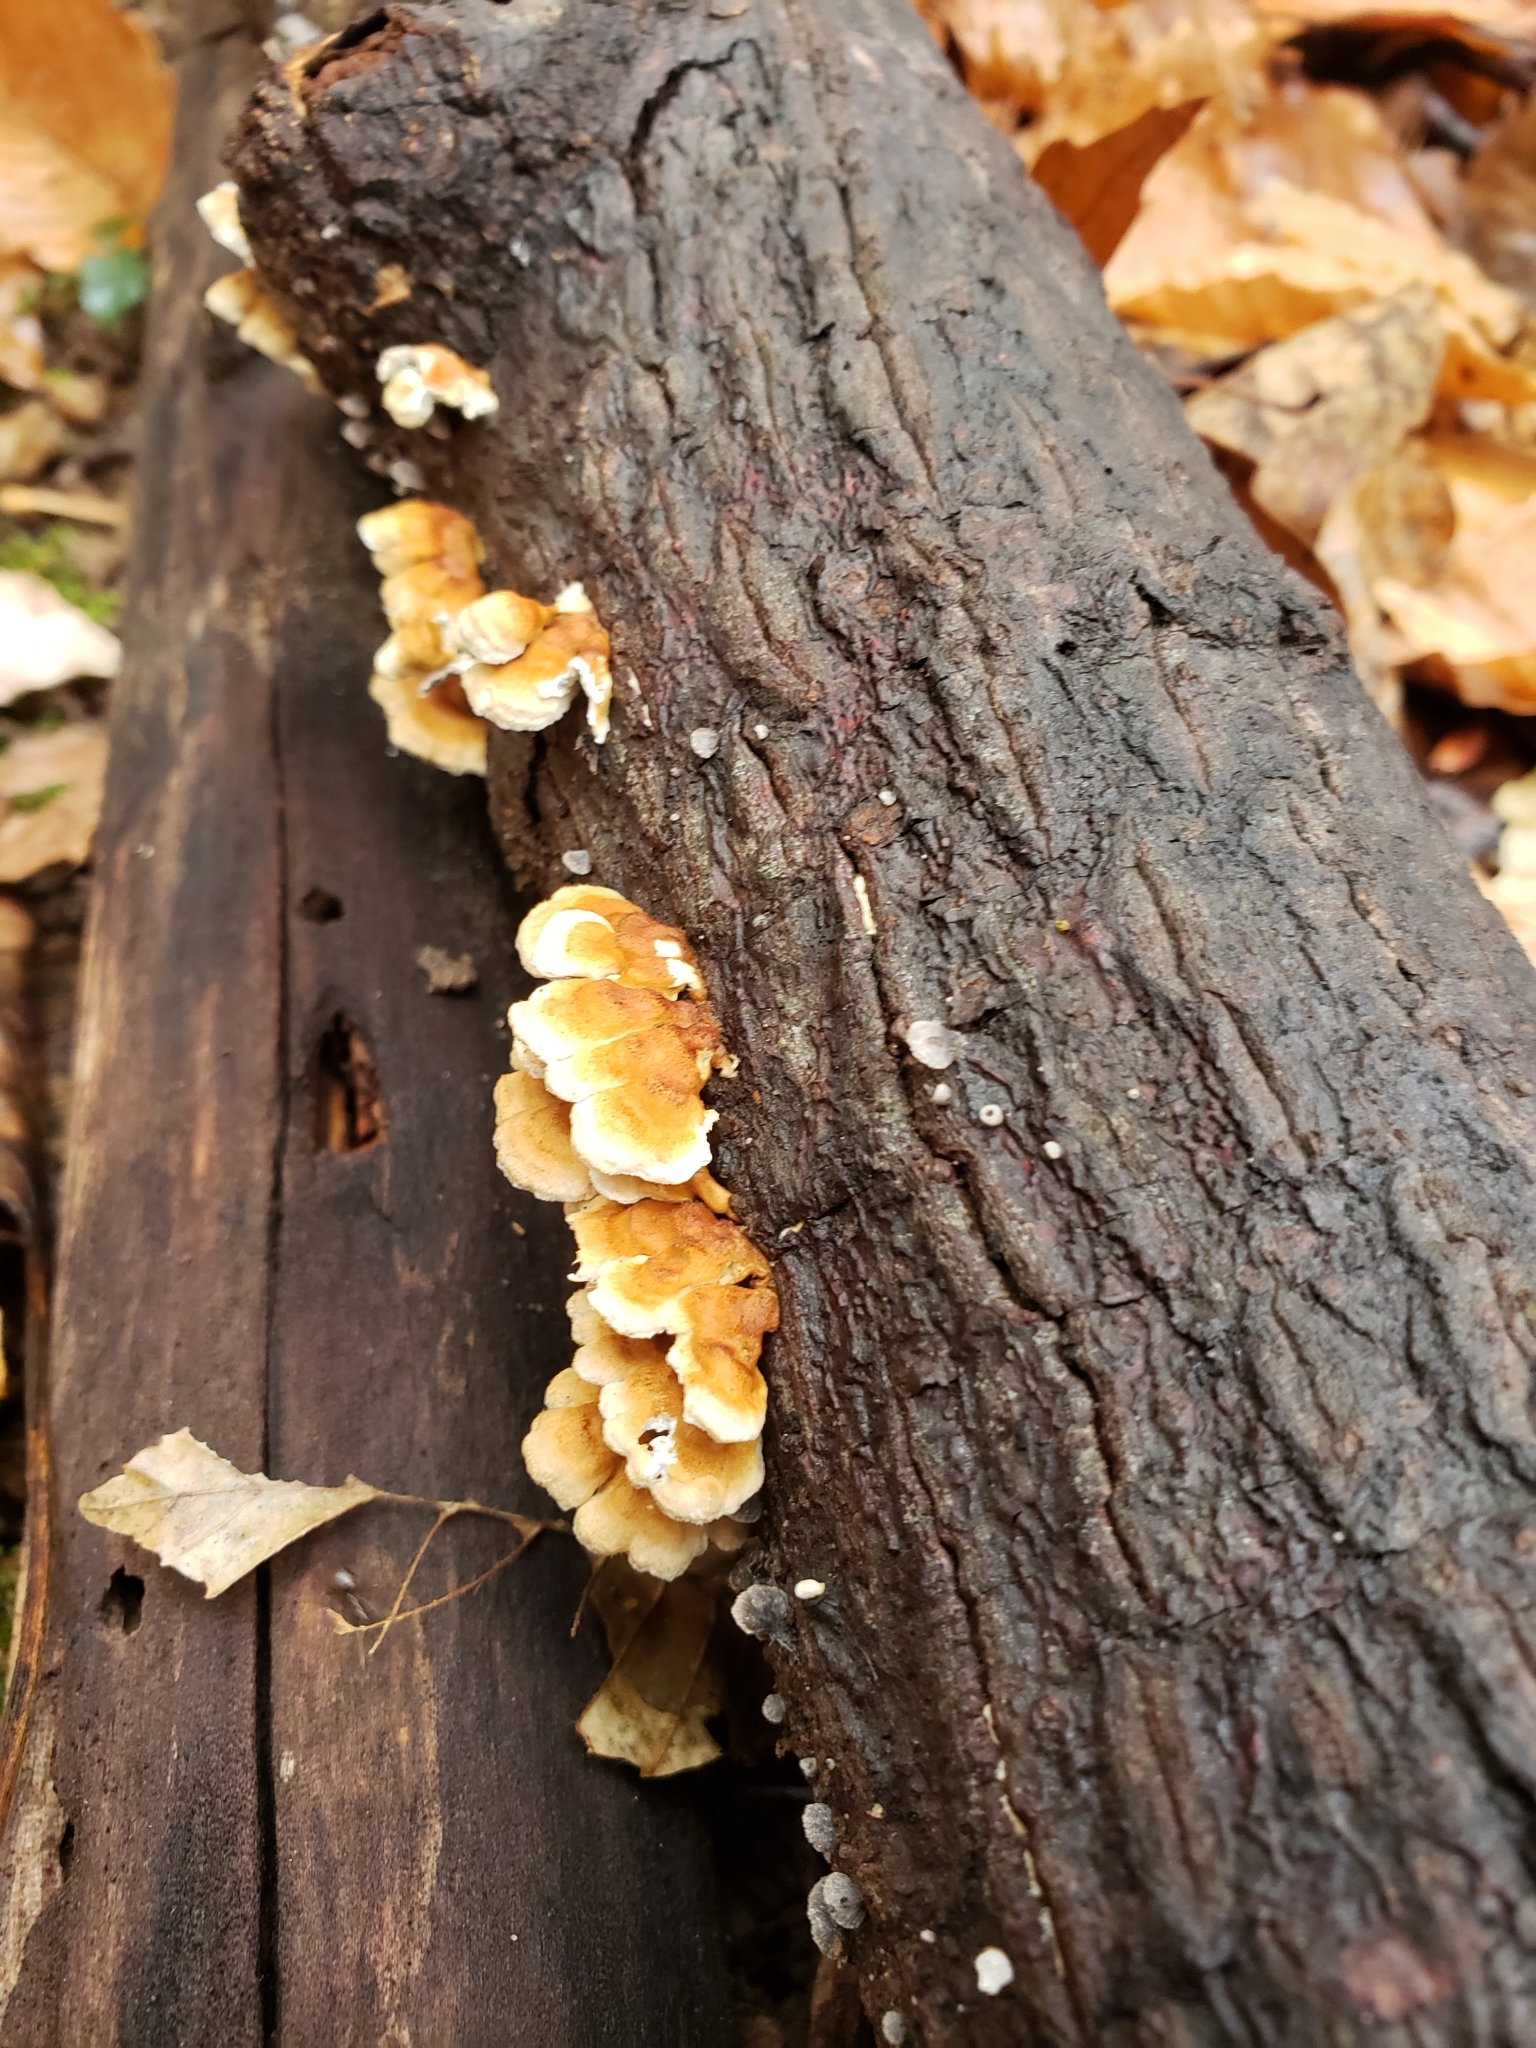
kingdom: Fungi
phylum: Basidiomycota
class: Agaricomycetes
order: Amylocorticiales
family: Amylocorticiaceae
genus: Plicaturopsis
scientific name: Plicaturopsis crispa
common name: Crimped gill
